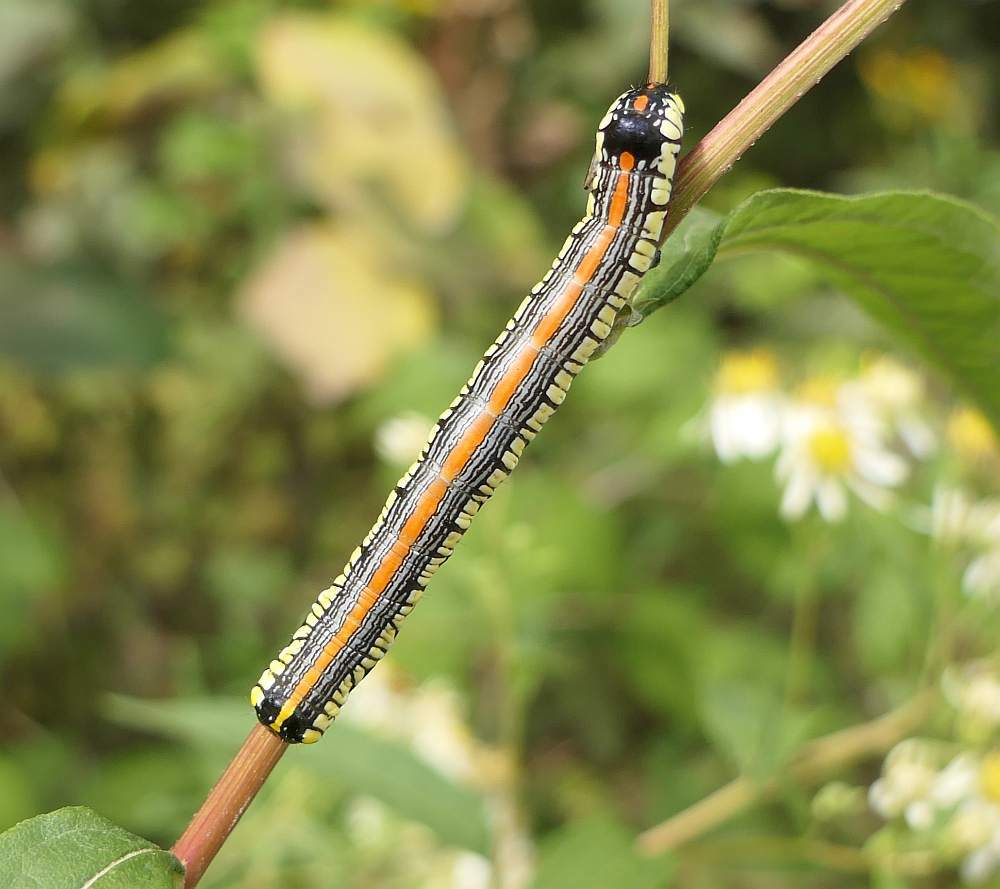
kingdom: Animalia
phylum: Arthropoda
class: Insecta
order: Lepidoptera
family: Noctuidae
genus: Cucullia
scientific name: Cucullia convexipennis
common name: Brown-hooded owlet
